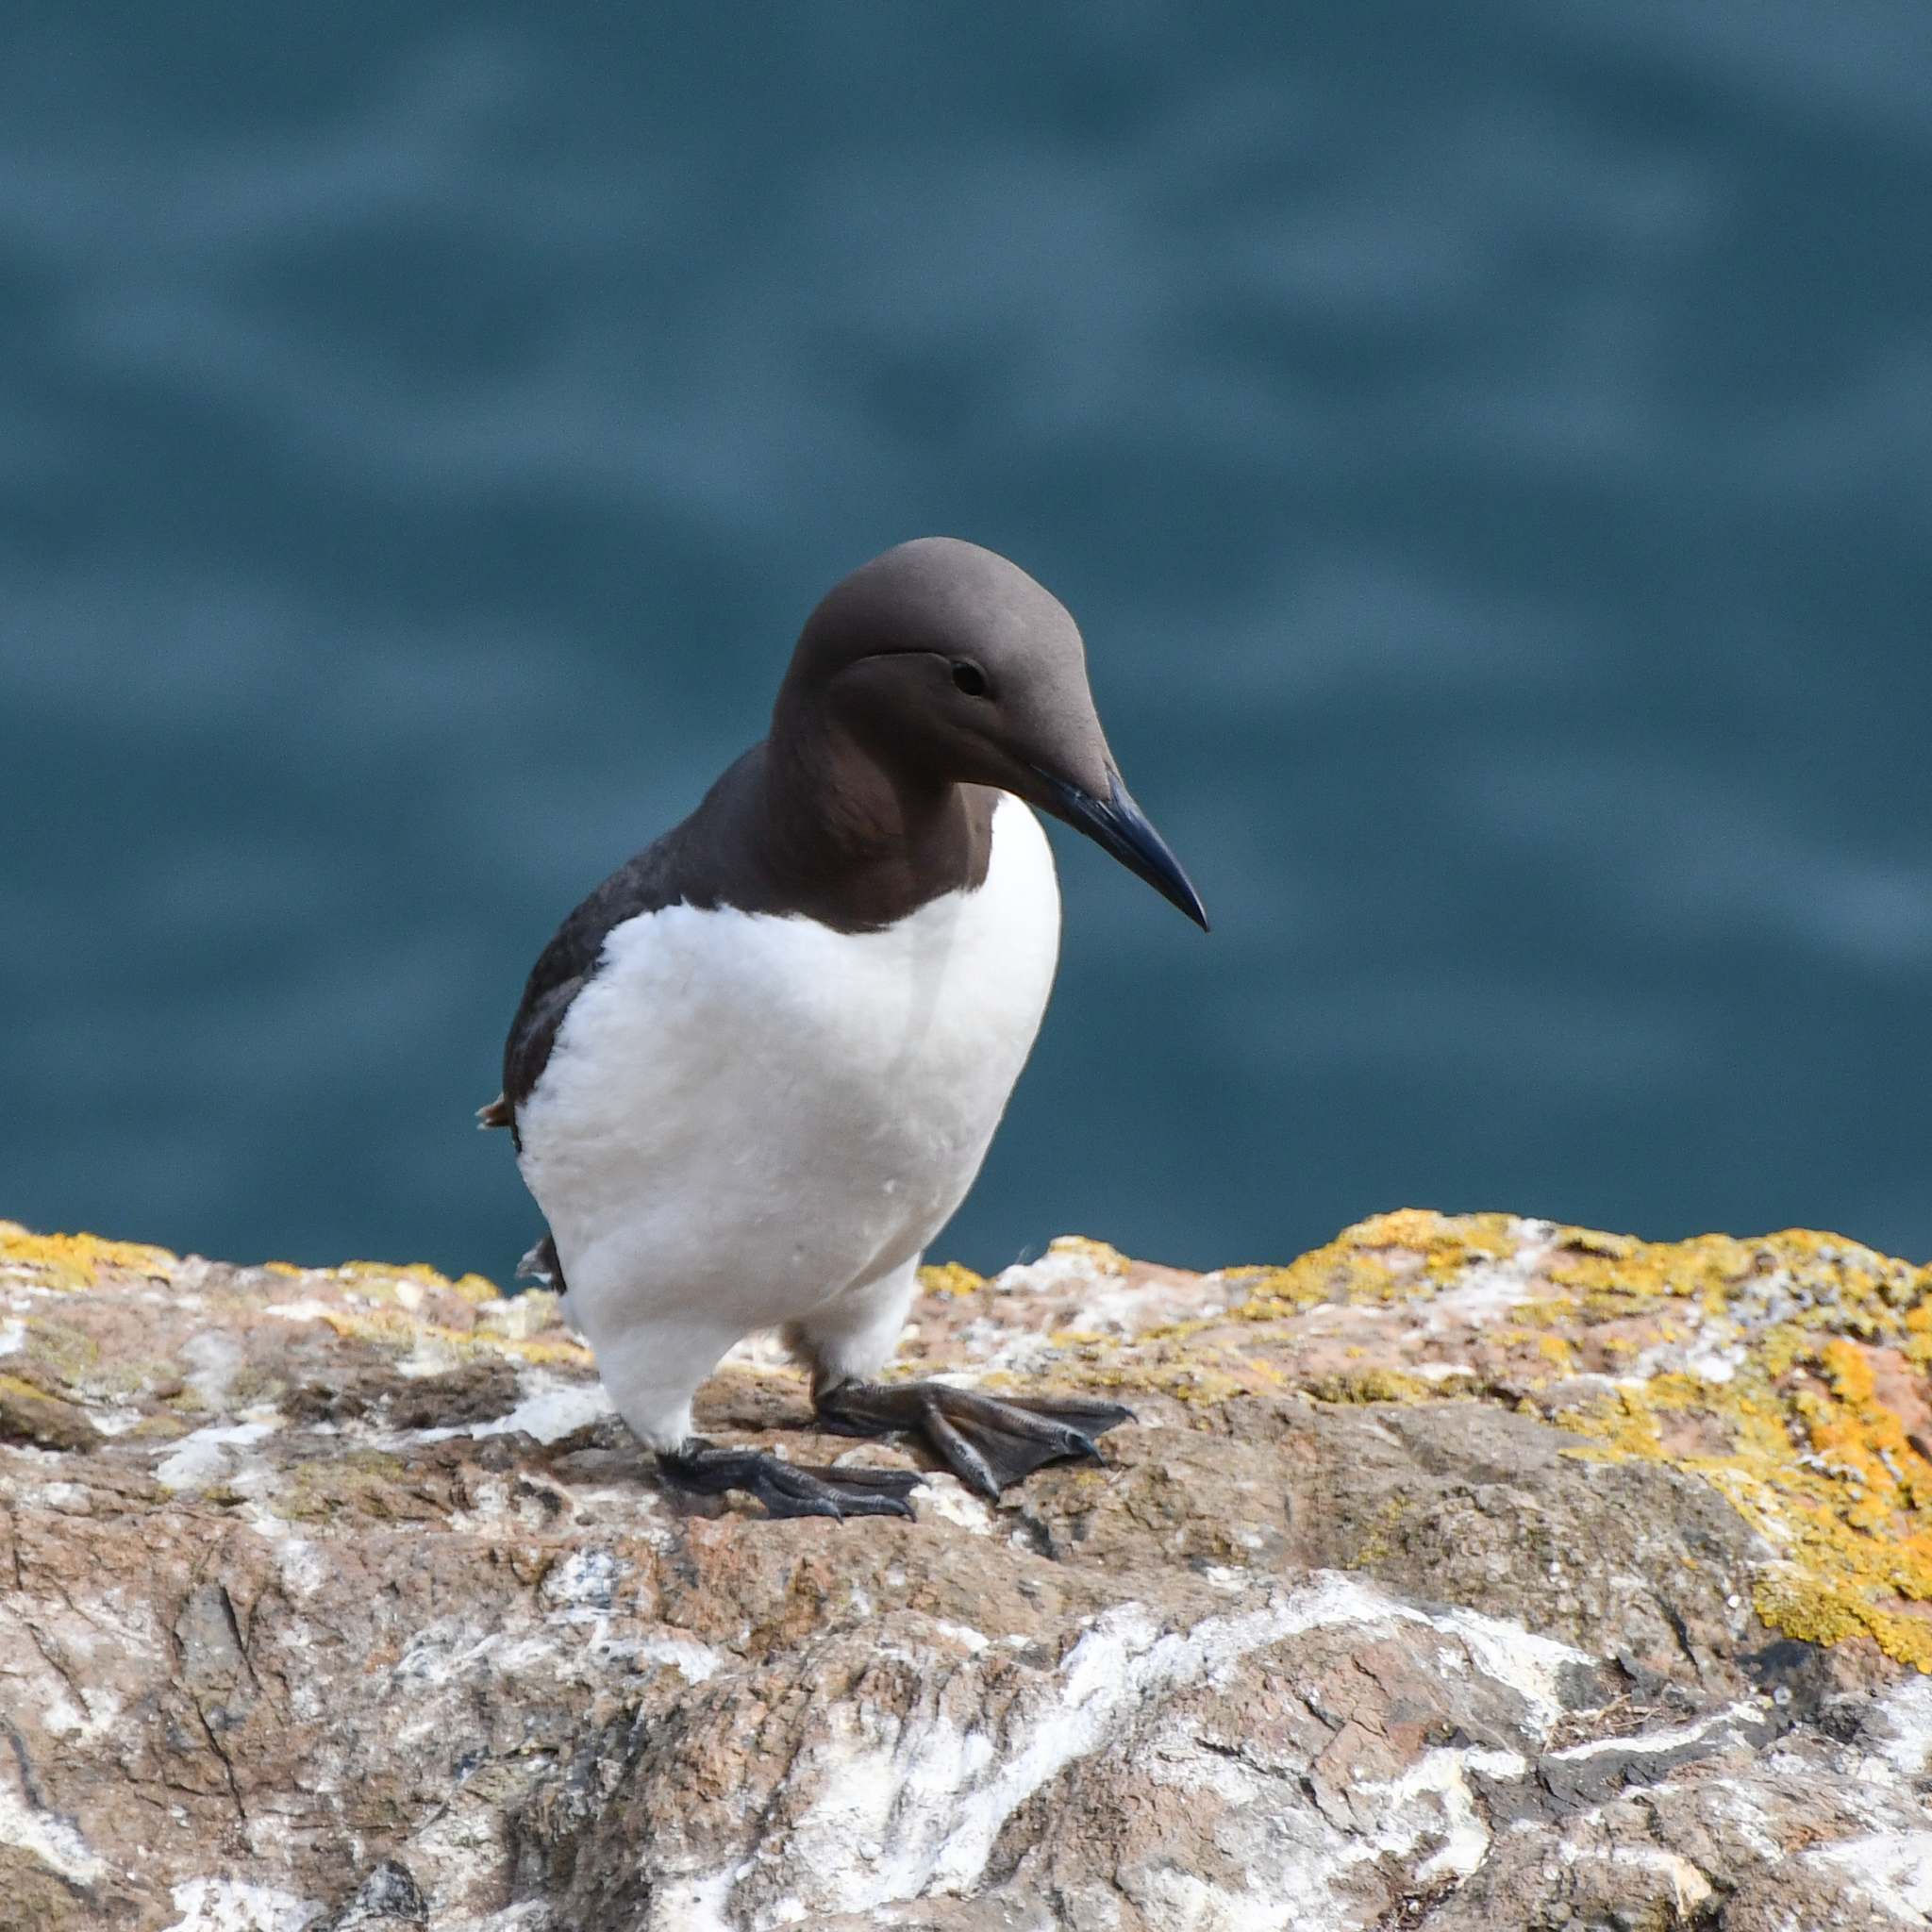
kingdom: Animalia
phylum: Chordata
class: Aves
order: Charadriiformes
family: Alcidae
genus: Uria
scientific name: Uria aalge
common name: Common murre
